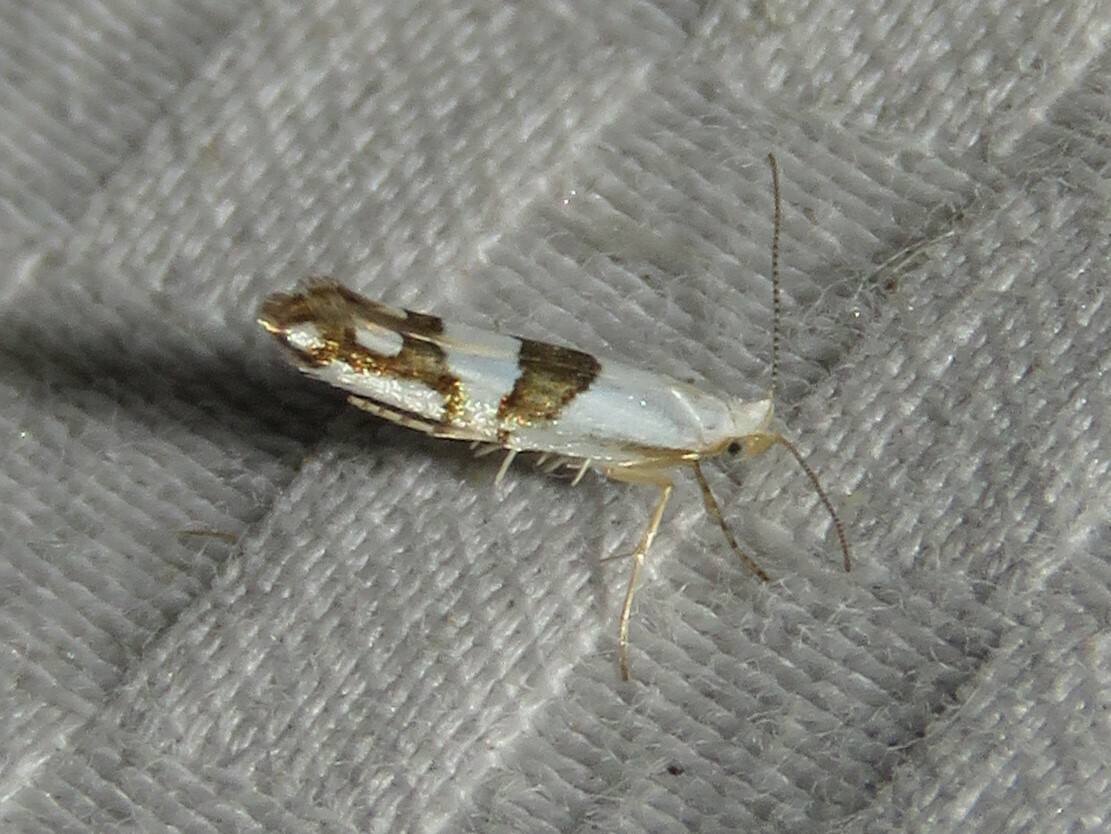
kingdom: Animalia
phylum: Arthropoda
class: Insecta
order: Lepidoptera
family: Argyresthiidae
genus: Argyresthia
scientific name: Argyresthia oreasella
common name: Cherry shoot borer moth
